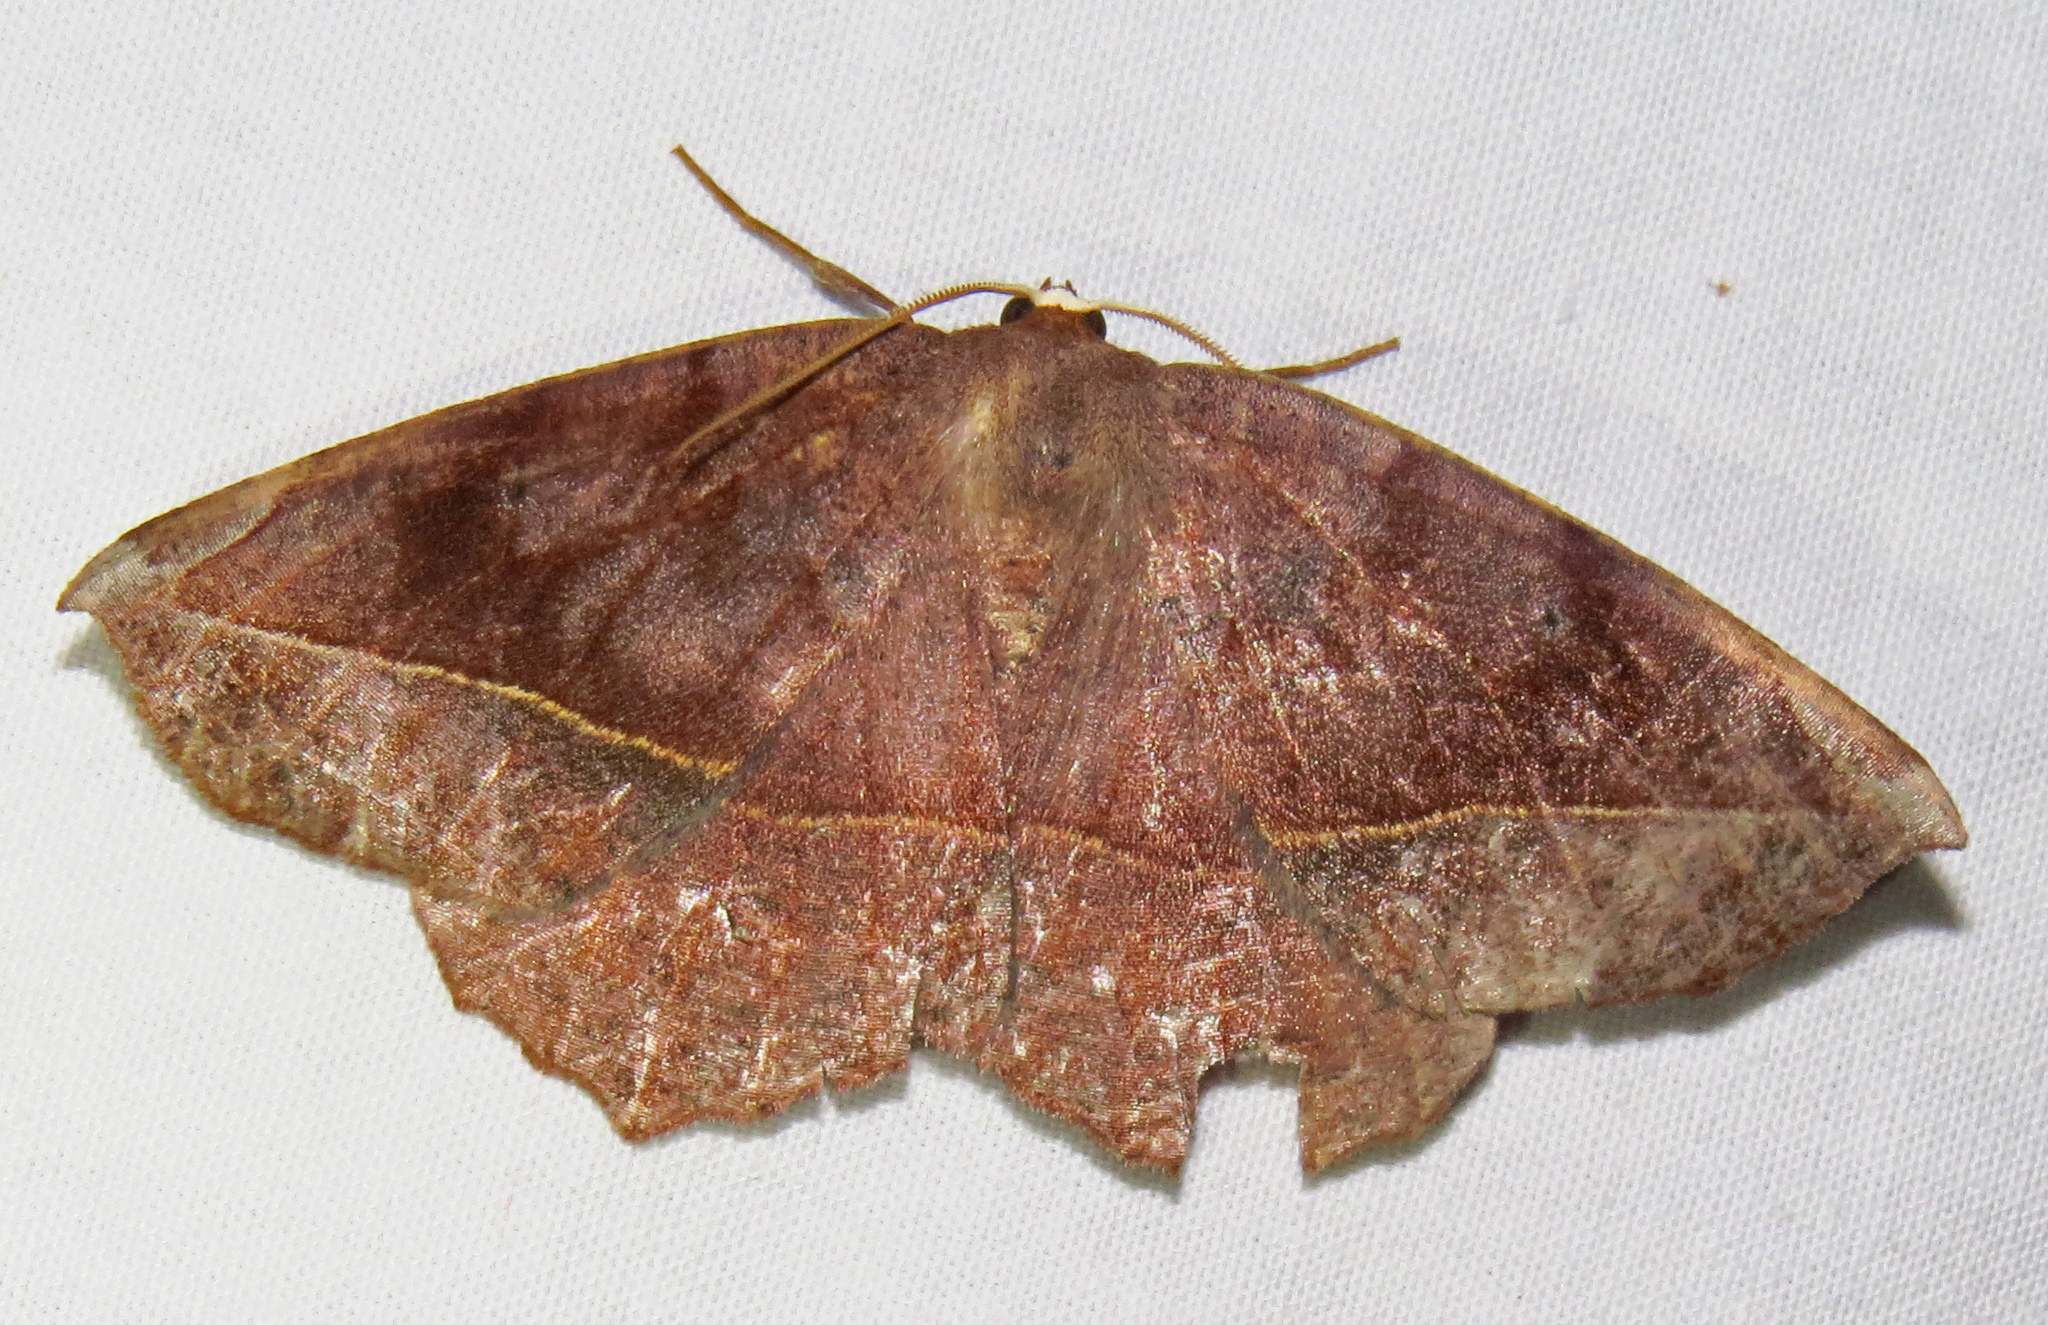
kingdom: Animalia
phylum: Arthropoda
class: Insecta
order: Lepidoptera
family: Geometridae
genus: Eutrapela
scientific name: Eutrapela clemataria
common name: Curved-toothed geometer
